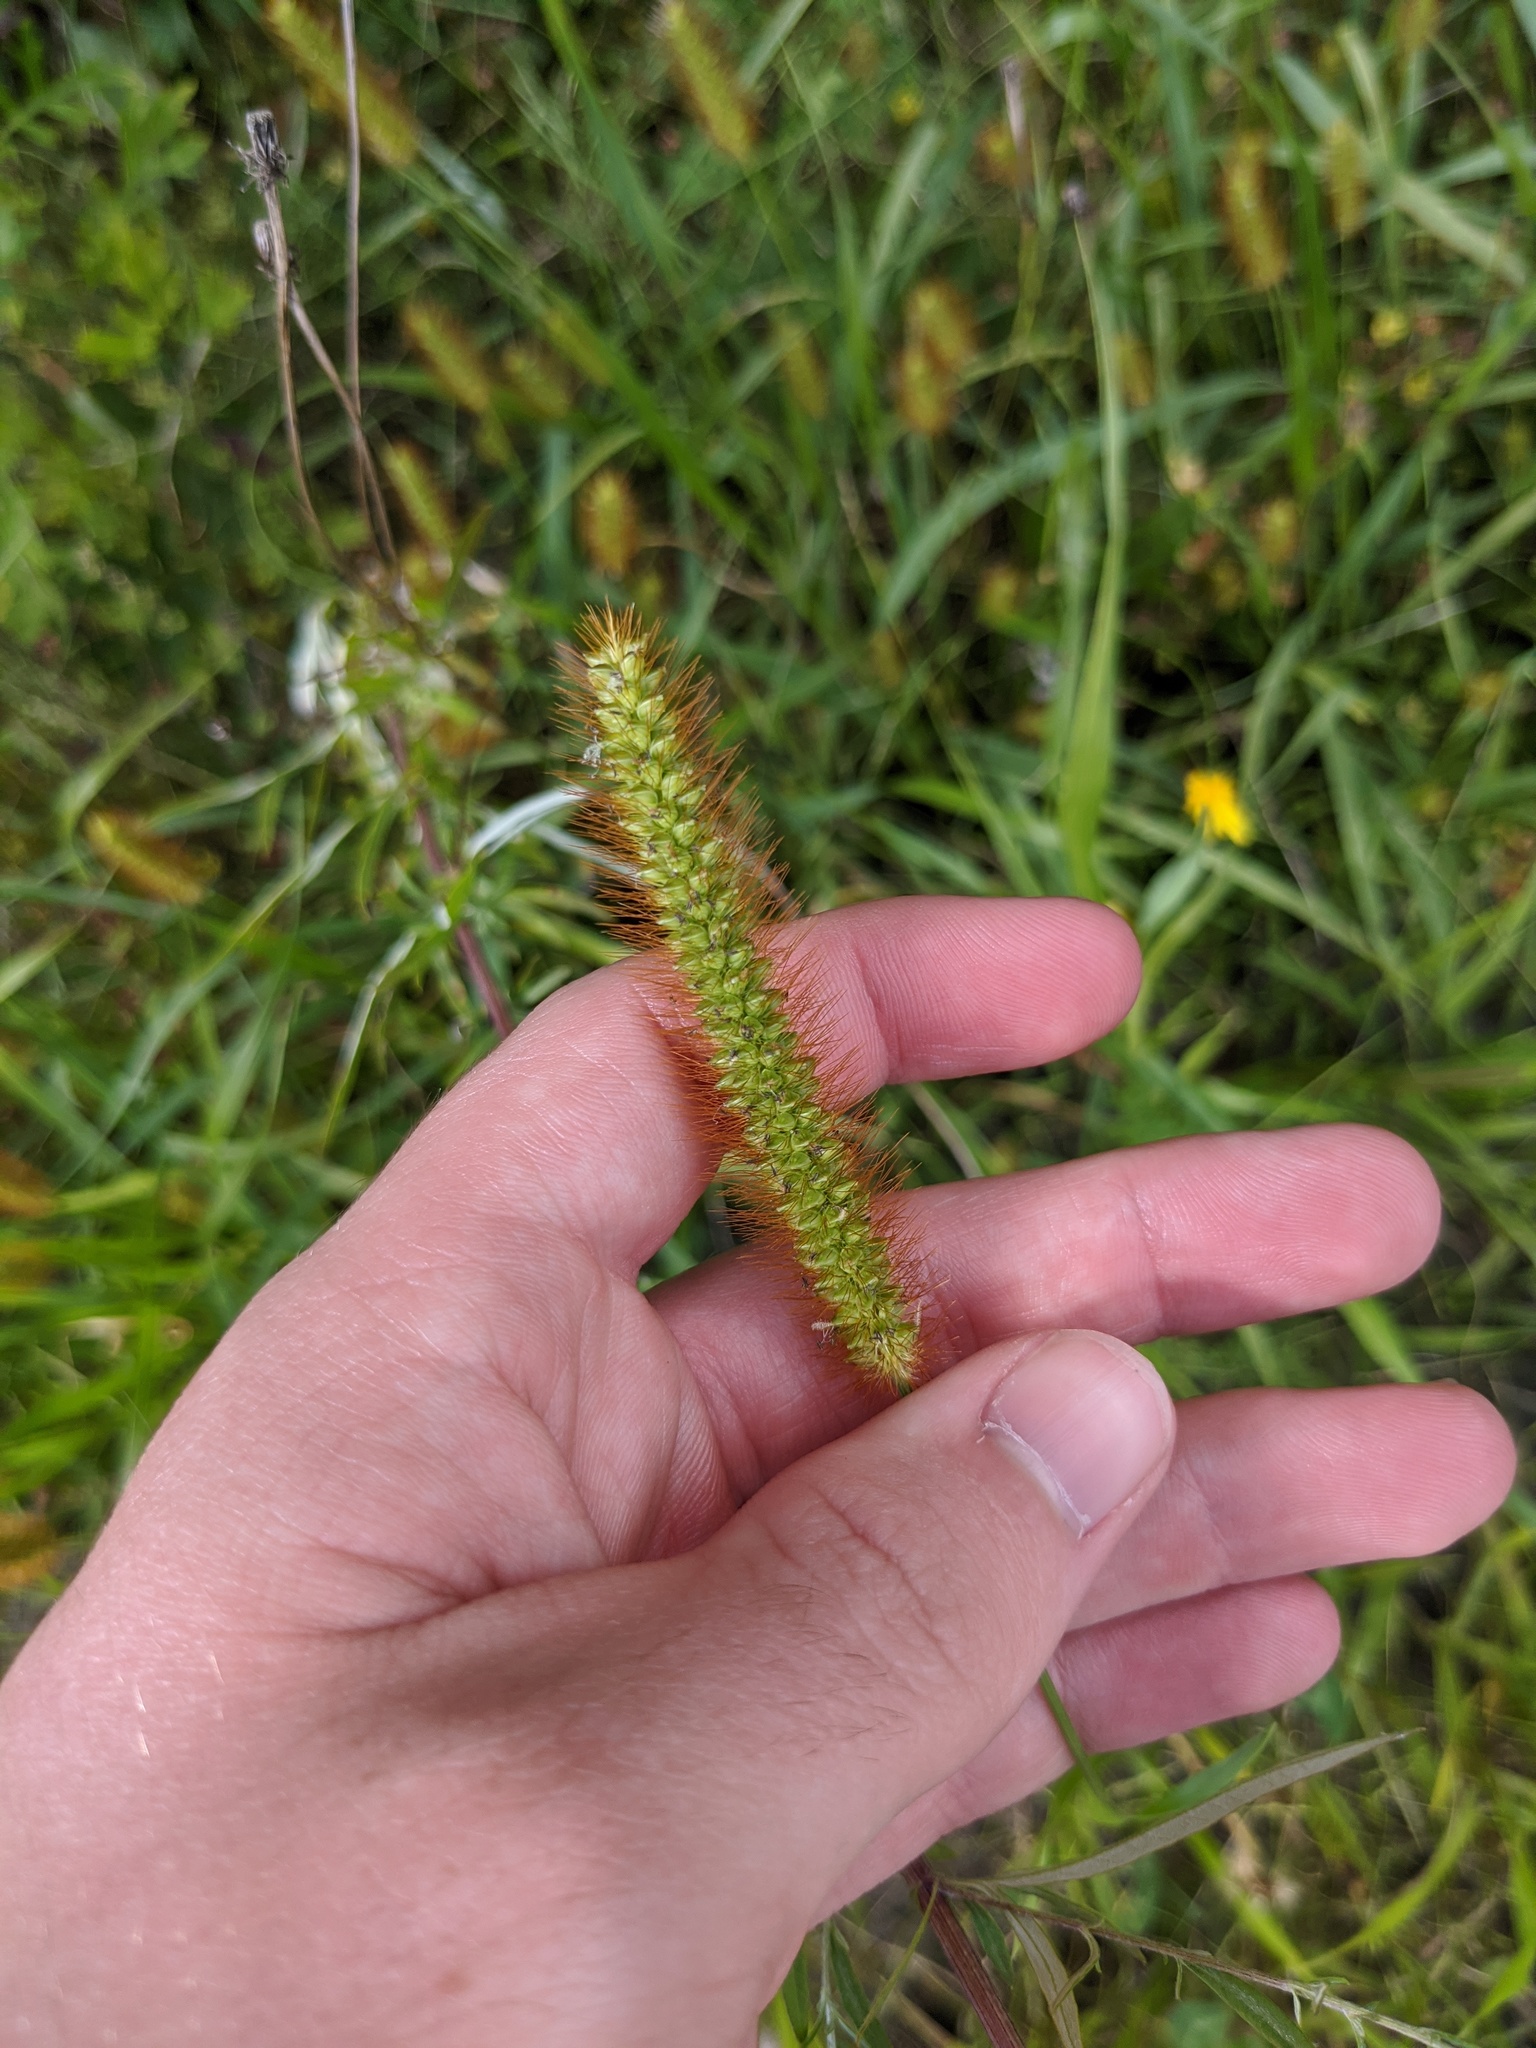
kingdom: Plantae
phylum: Tracheophyta
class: Liliopsida
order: Poales
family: Poaceae
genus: Setaria
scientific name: Setaria pumila
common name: Yellow bristle-grass
